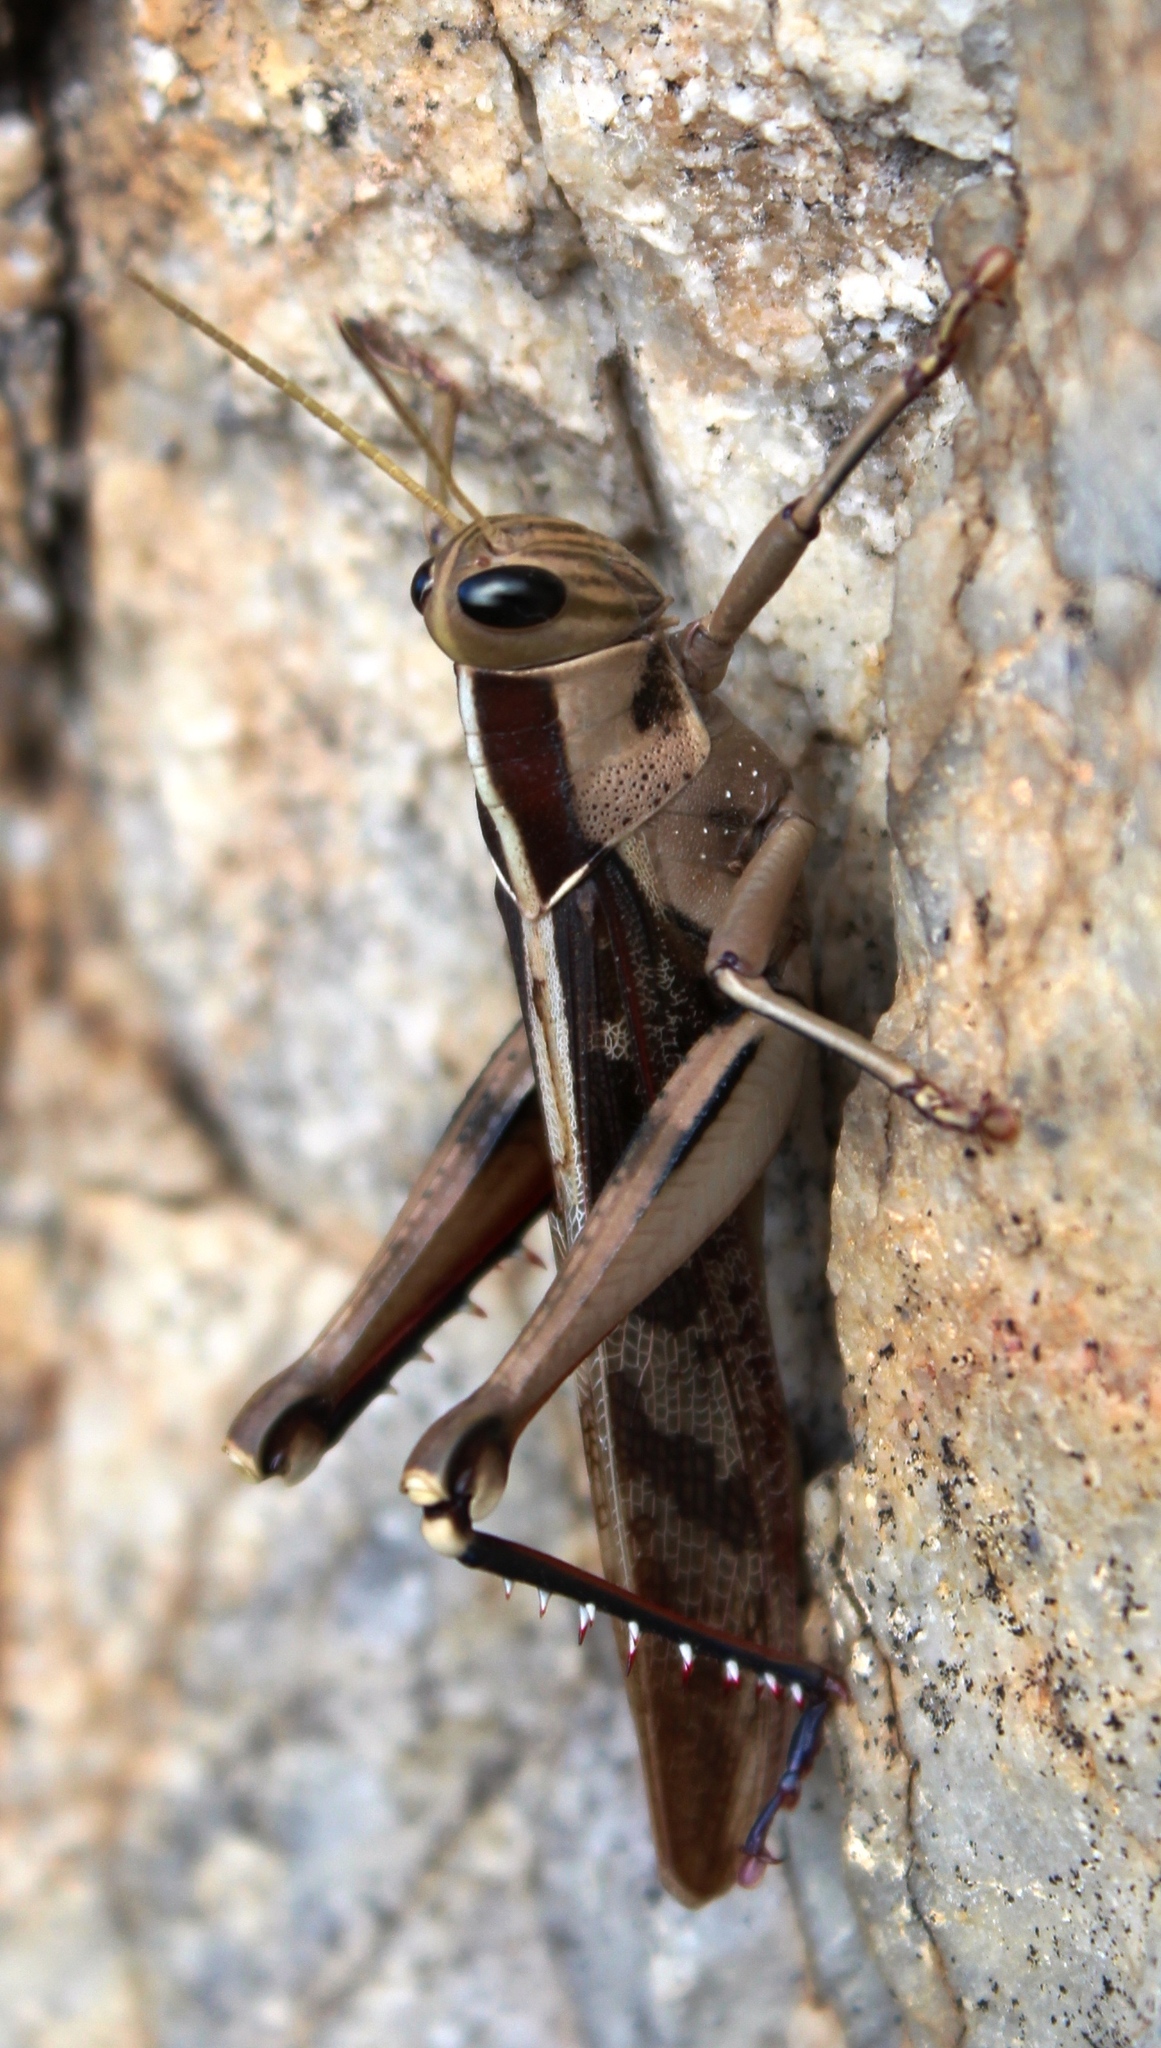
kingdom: Animalia
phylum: Arthropoda
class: Insecta
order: Orthoptera
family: Acrididae
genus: Acanthacris
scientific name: Acanthacris ruficornis
